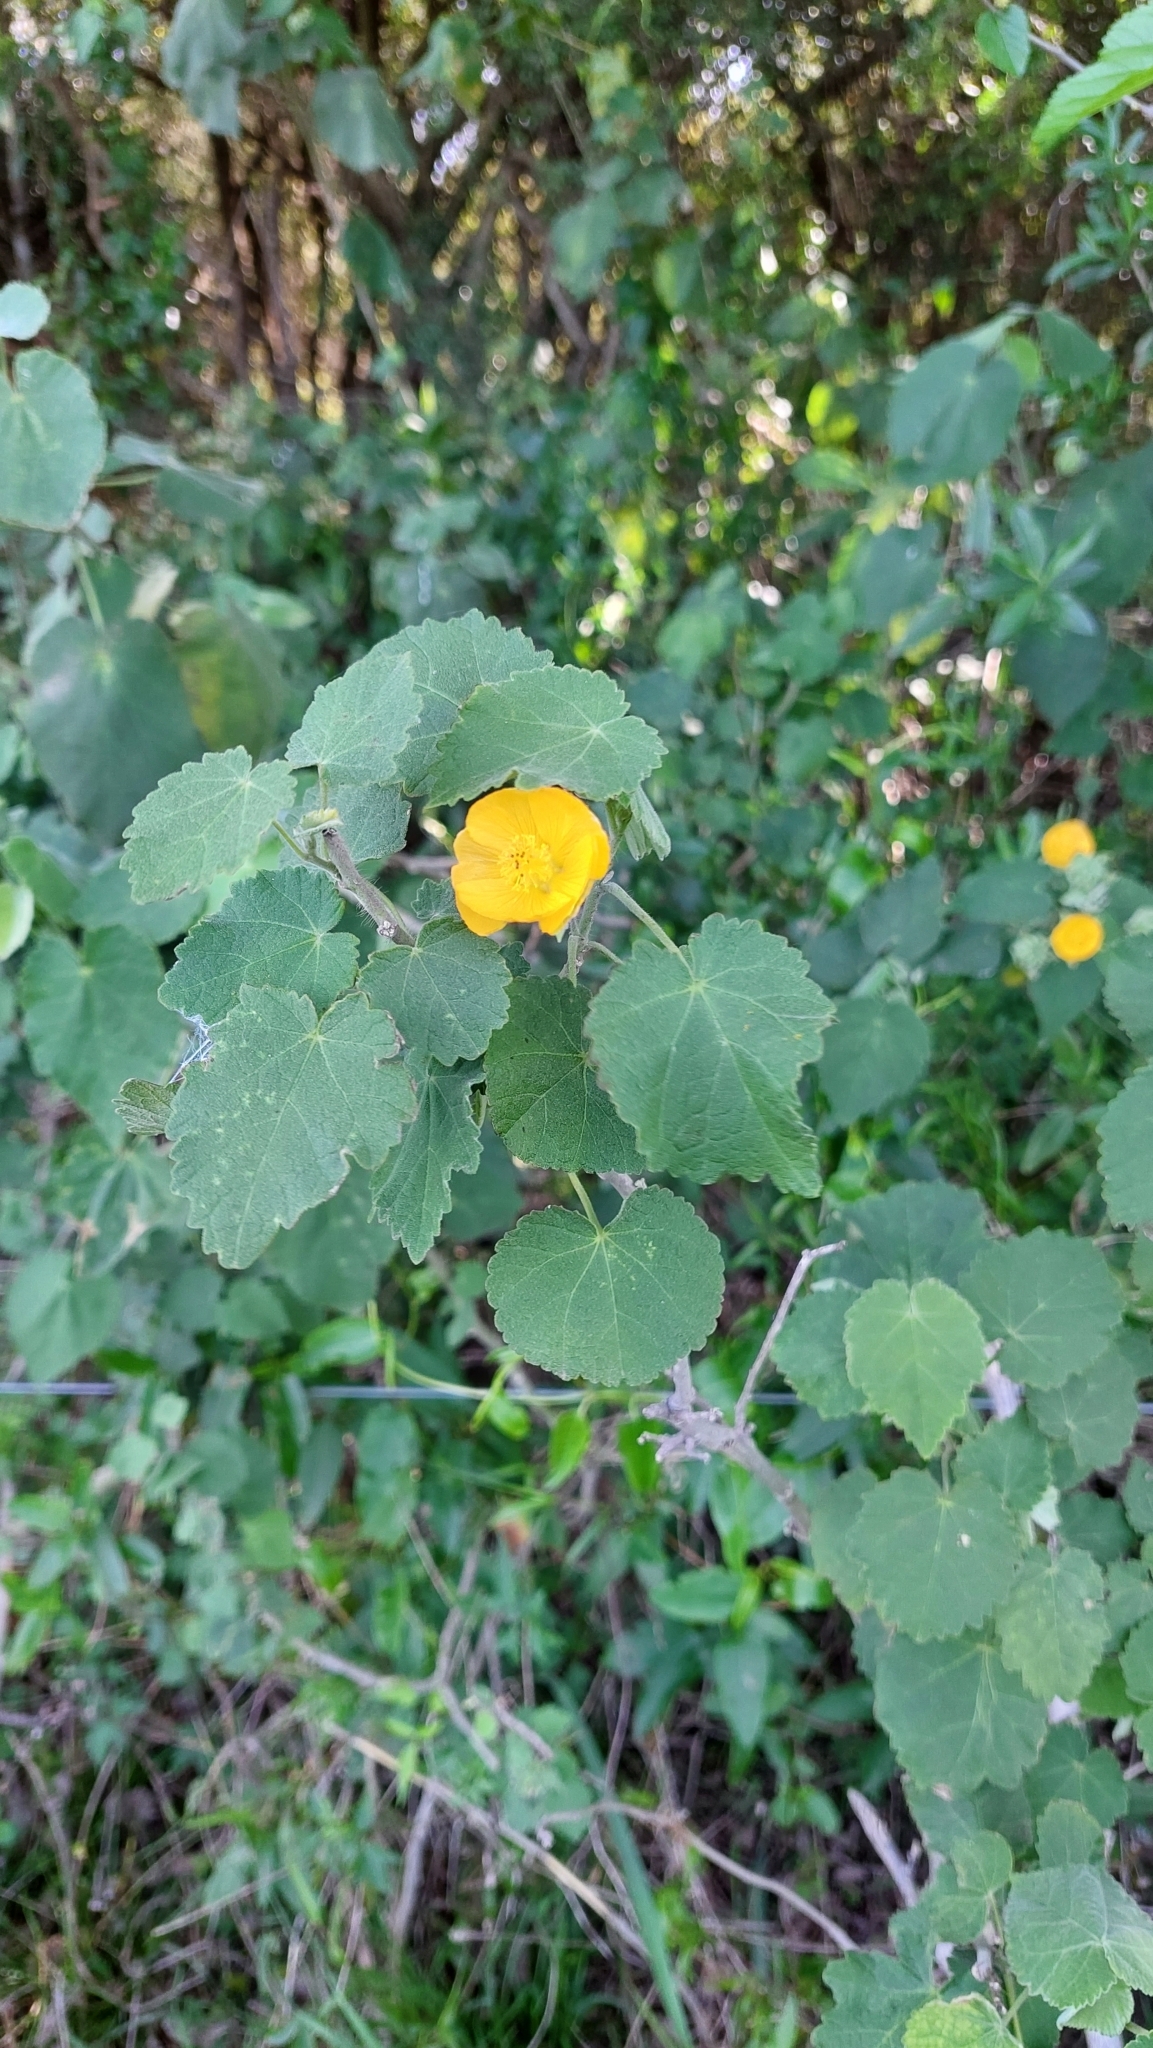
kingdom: Plantae
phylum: Tracheophyta
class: Magnoliopsida
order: Malvales
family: Malvaceae
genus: Abutilon
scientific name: Abutilon grandifolium
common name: Hairy abutilon
